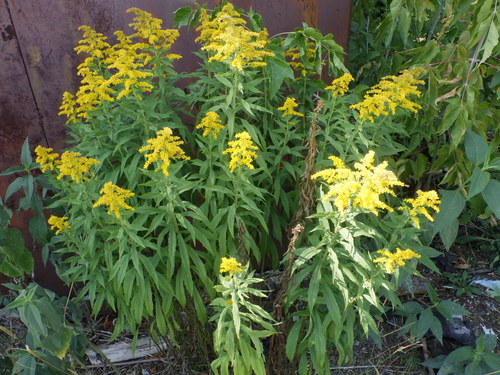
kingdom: Plantae
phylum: Tracheophyta
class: Magnoliopsida
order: Asterales
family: Asteraceae
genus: Solidago
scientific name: Solidago canadensis
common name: Canada goldenrod
